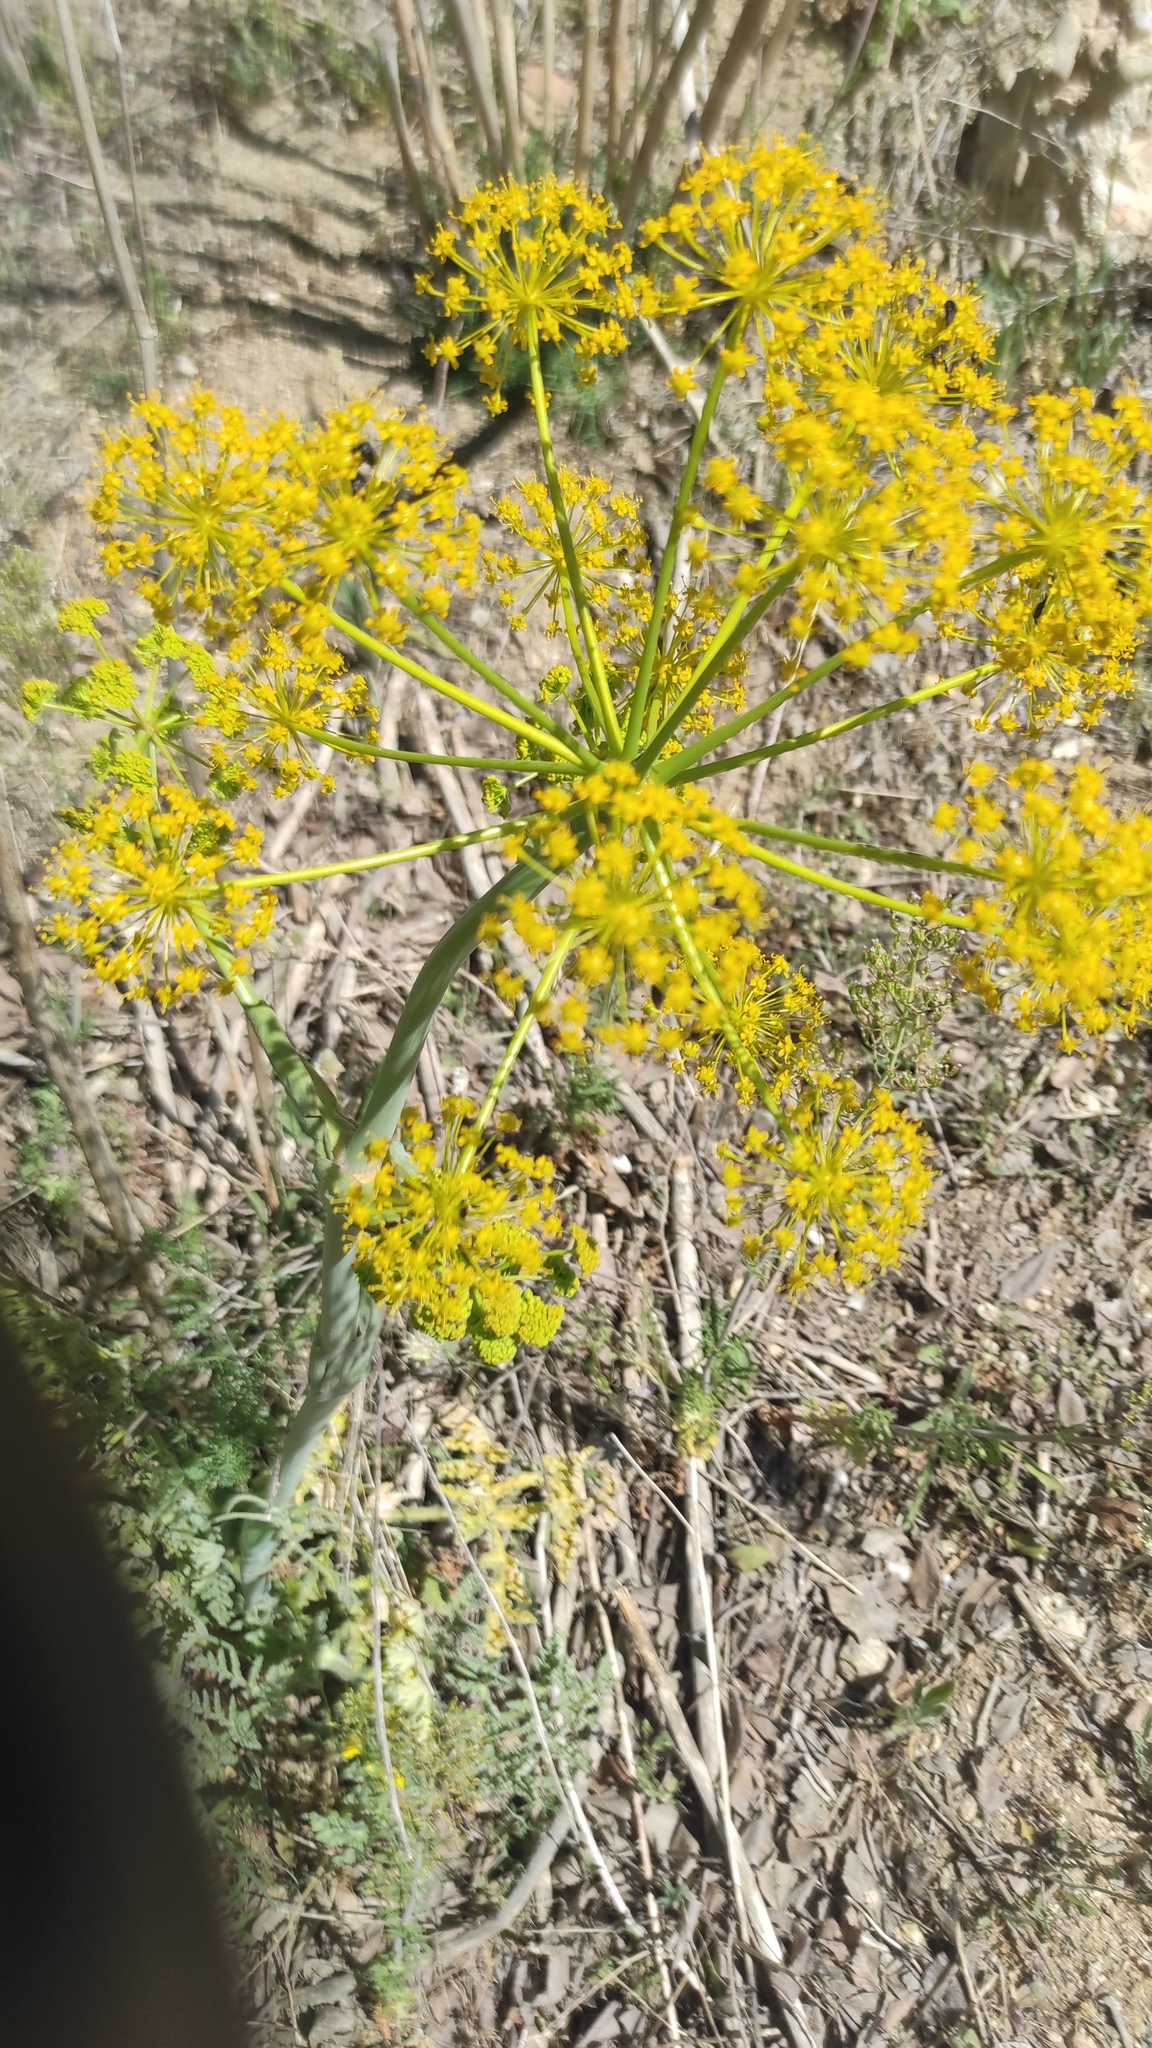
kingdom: Plantae
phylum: Tracheophyta
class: Magnoliopsida
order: Apiales
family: Apiaceae
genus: Thapsia
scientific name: Thapsia villosa
